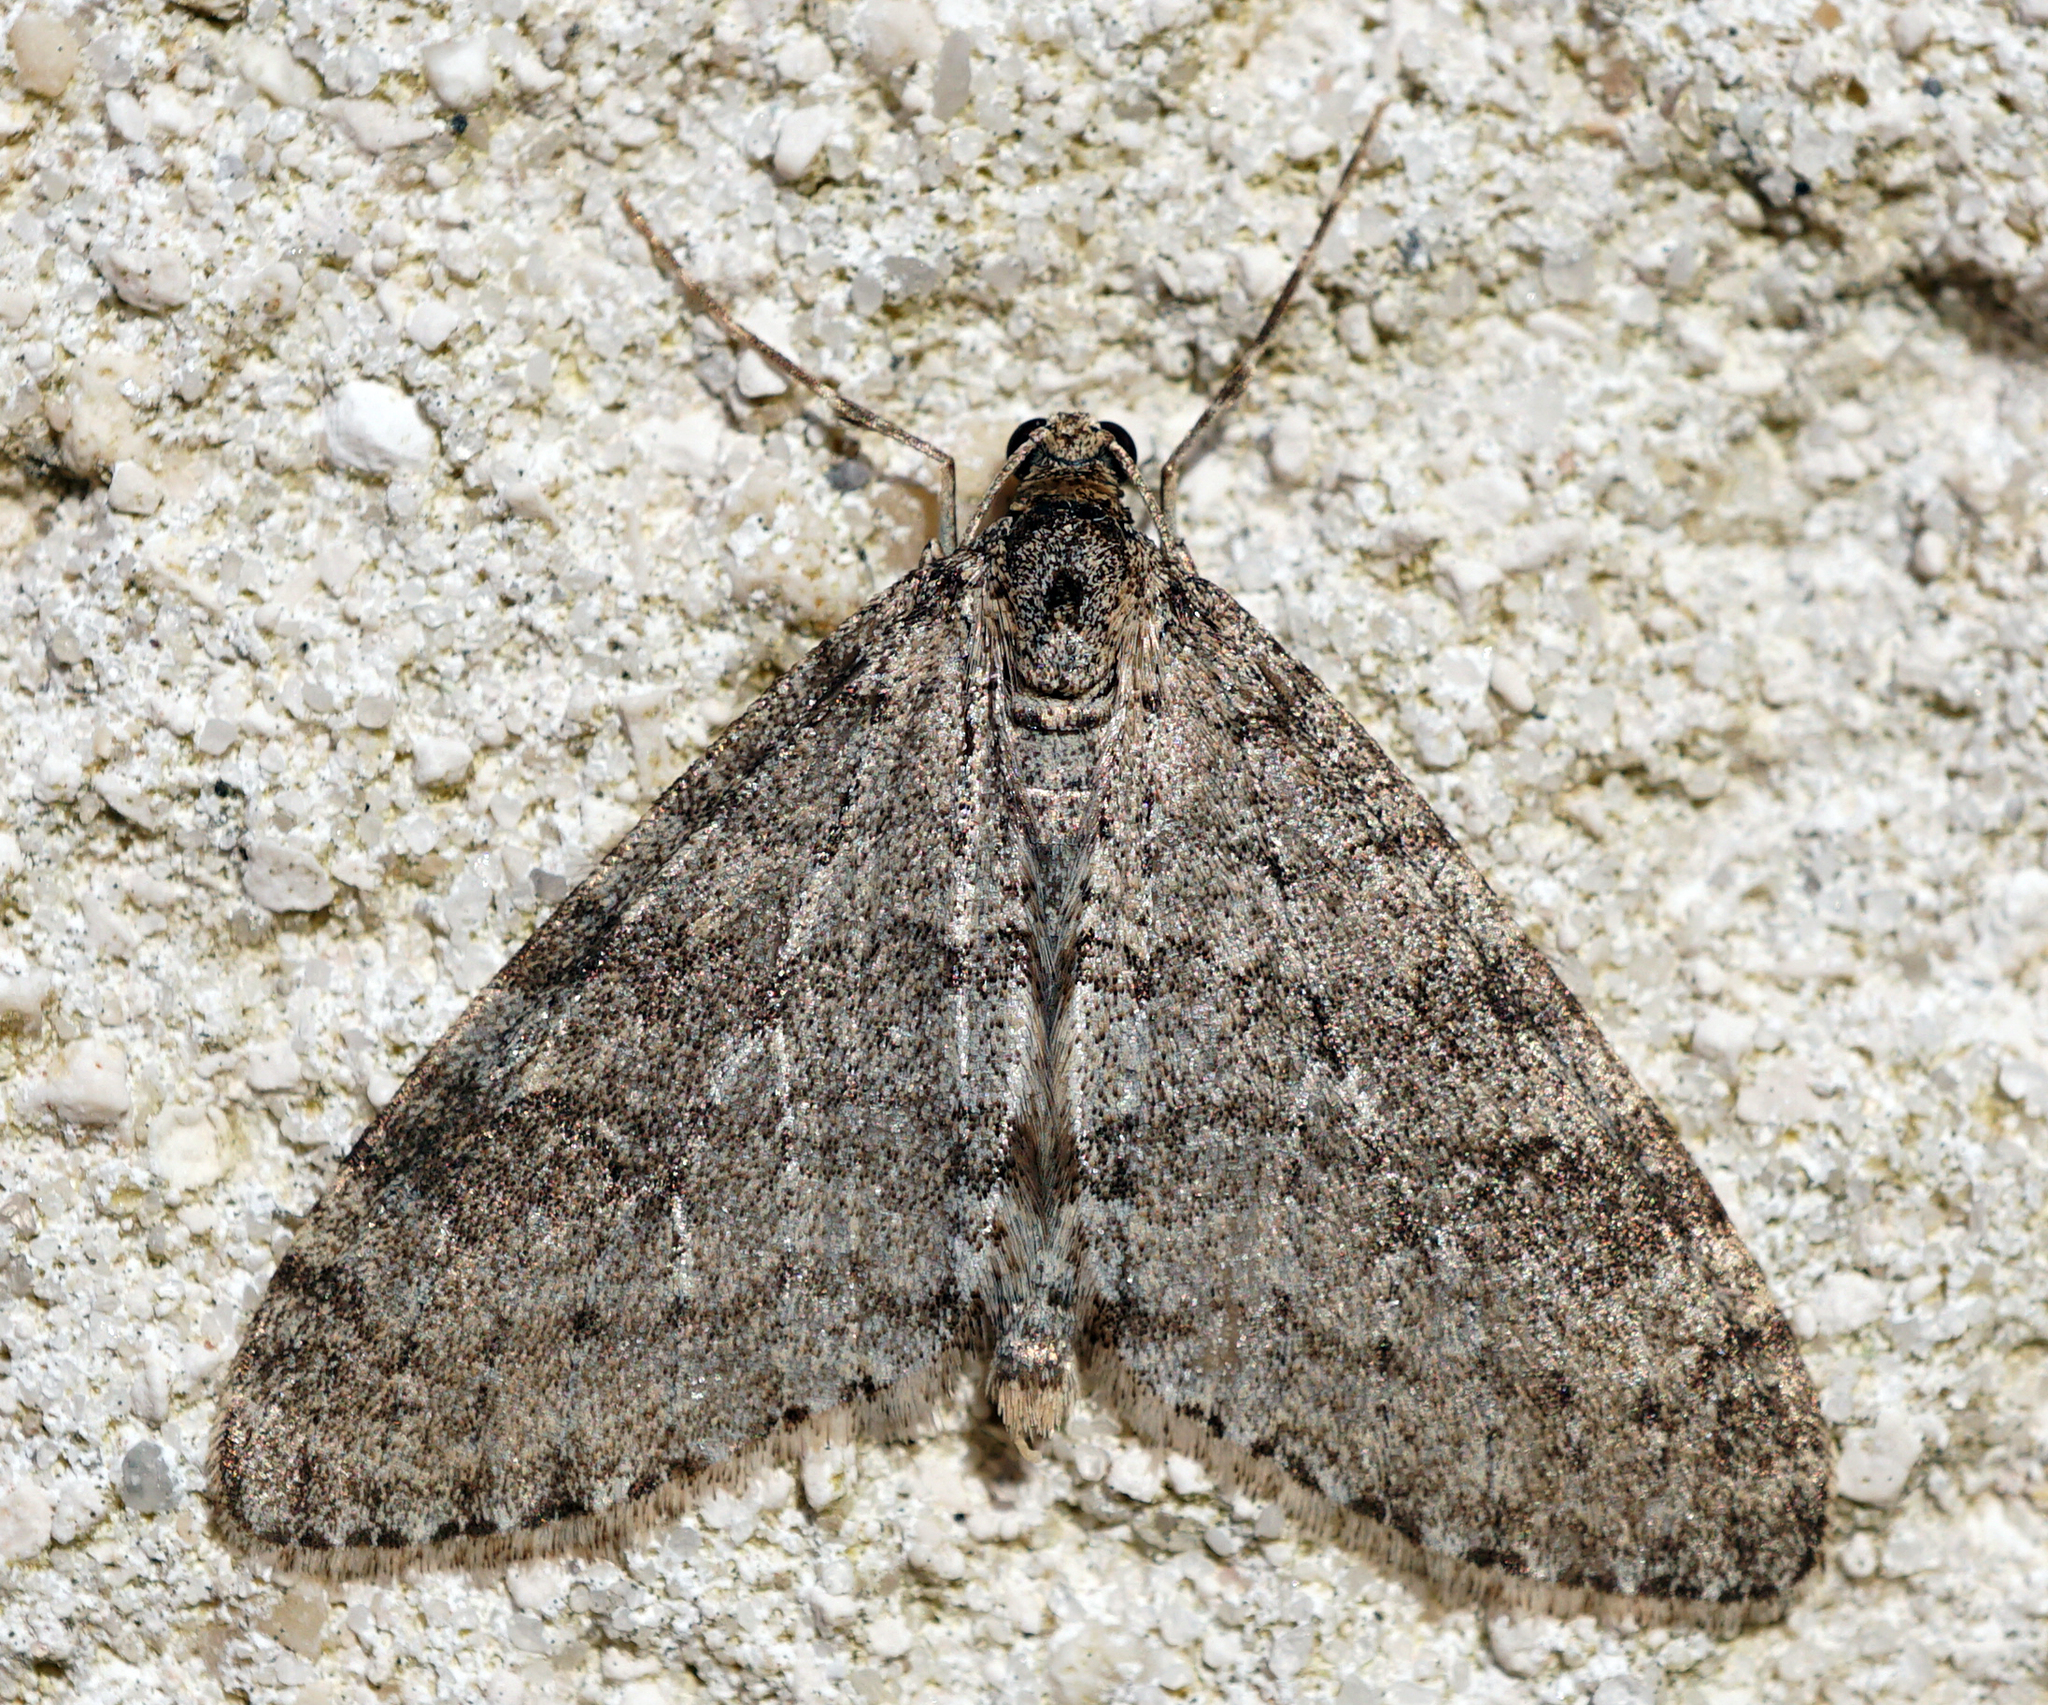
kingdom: Animalia
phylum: Arthropoda
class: Insecta
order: Lepidoptera
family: Geometridae
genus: Trichopteryx
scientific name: Trichopteryx carpinata
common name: Early tooth-striped
